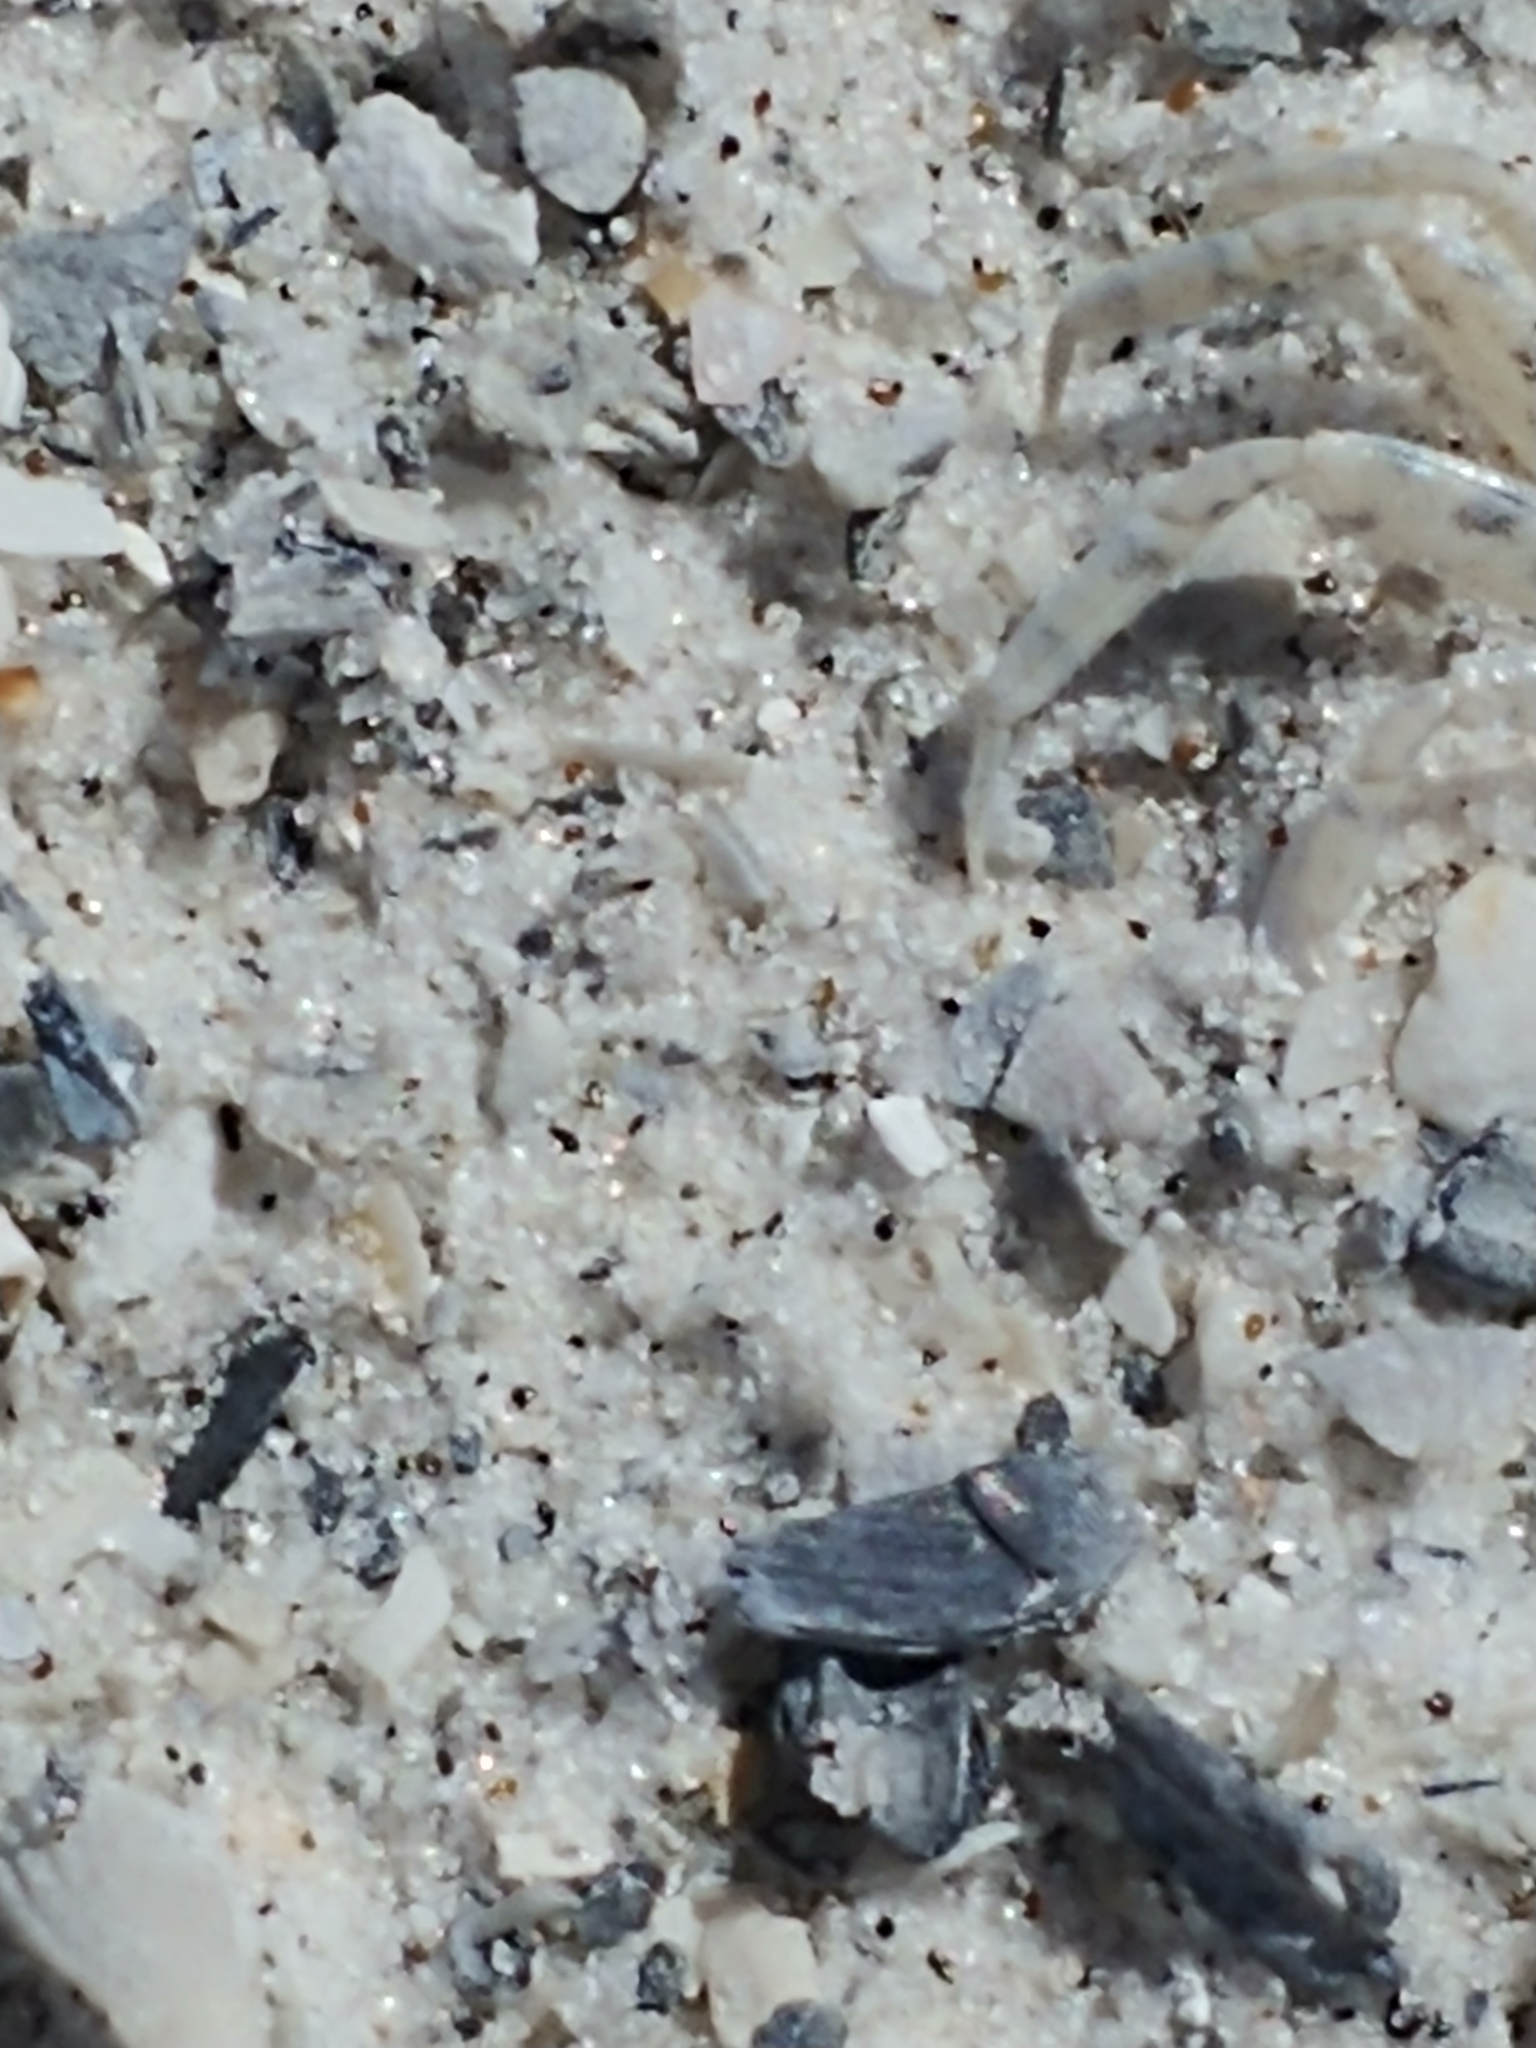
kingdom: Animalia
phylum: Arthropoda
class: Malacostraca
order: Decapoda
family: Ocypodidae
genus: Ocypode
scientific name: Ocypode quadrata
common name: Ghost crab
